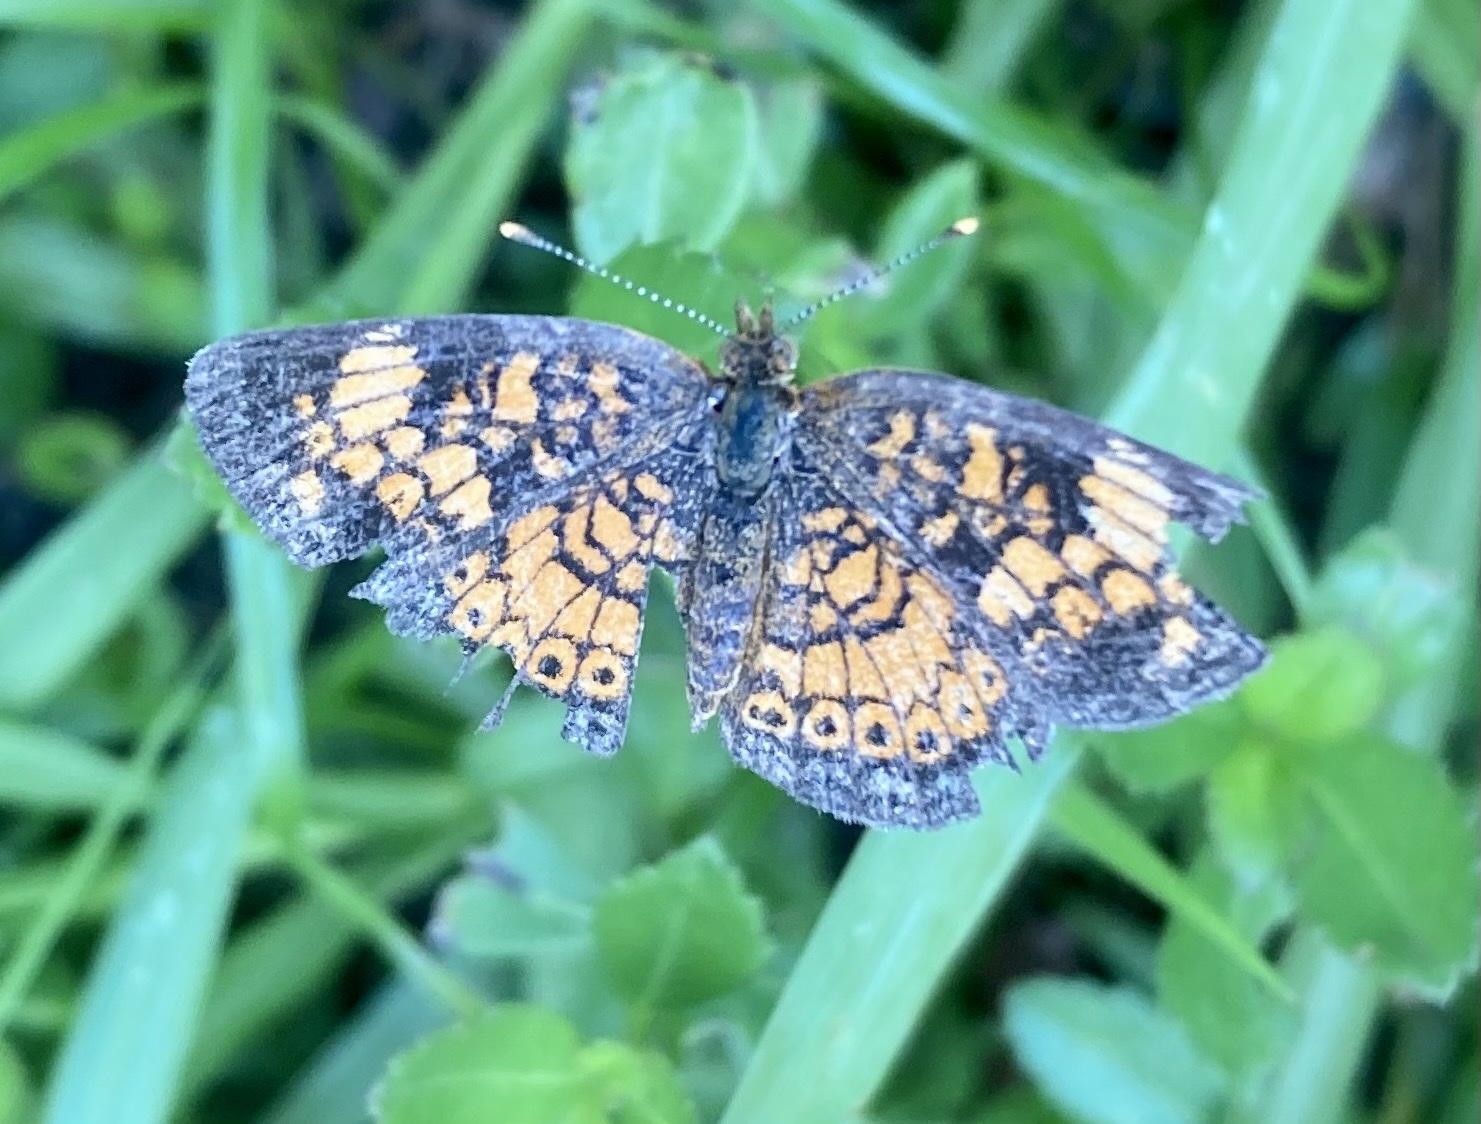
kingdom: Animalia
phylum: Arthropoda
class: Insecta
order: Lepidoptera
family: Nymphalidae
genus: Phyciodes
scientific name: Phyciodes tharos
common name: Pearl crescent
